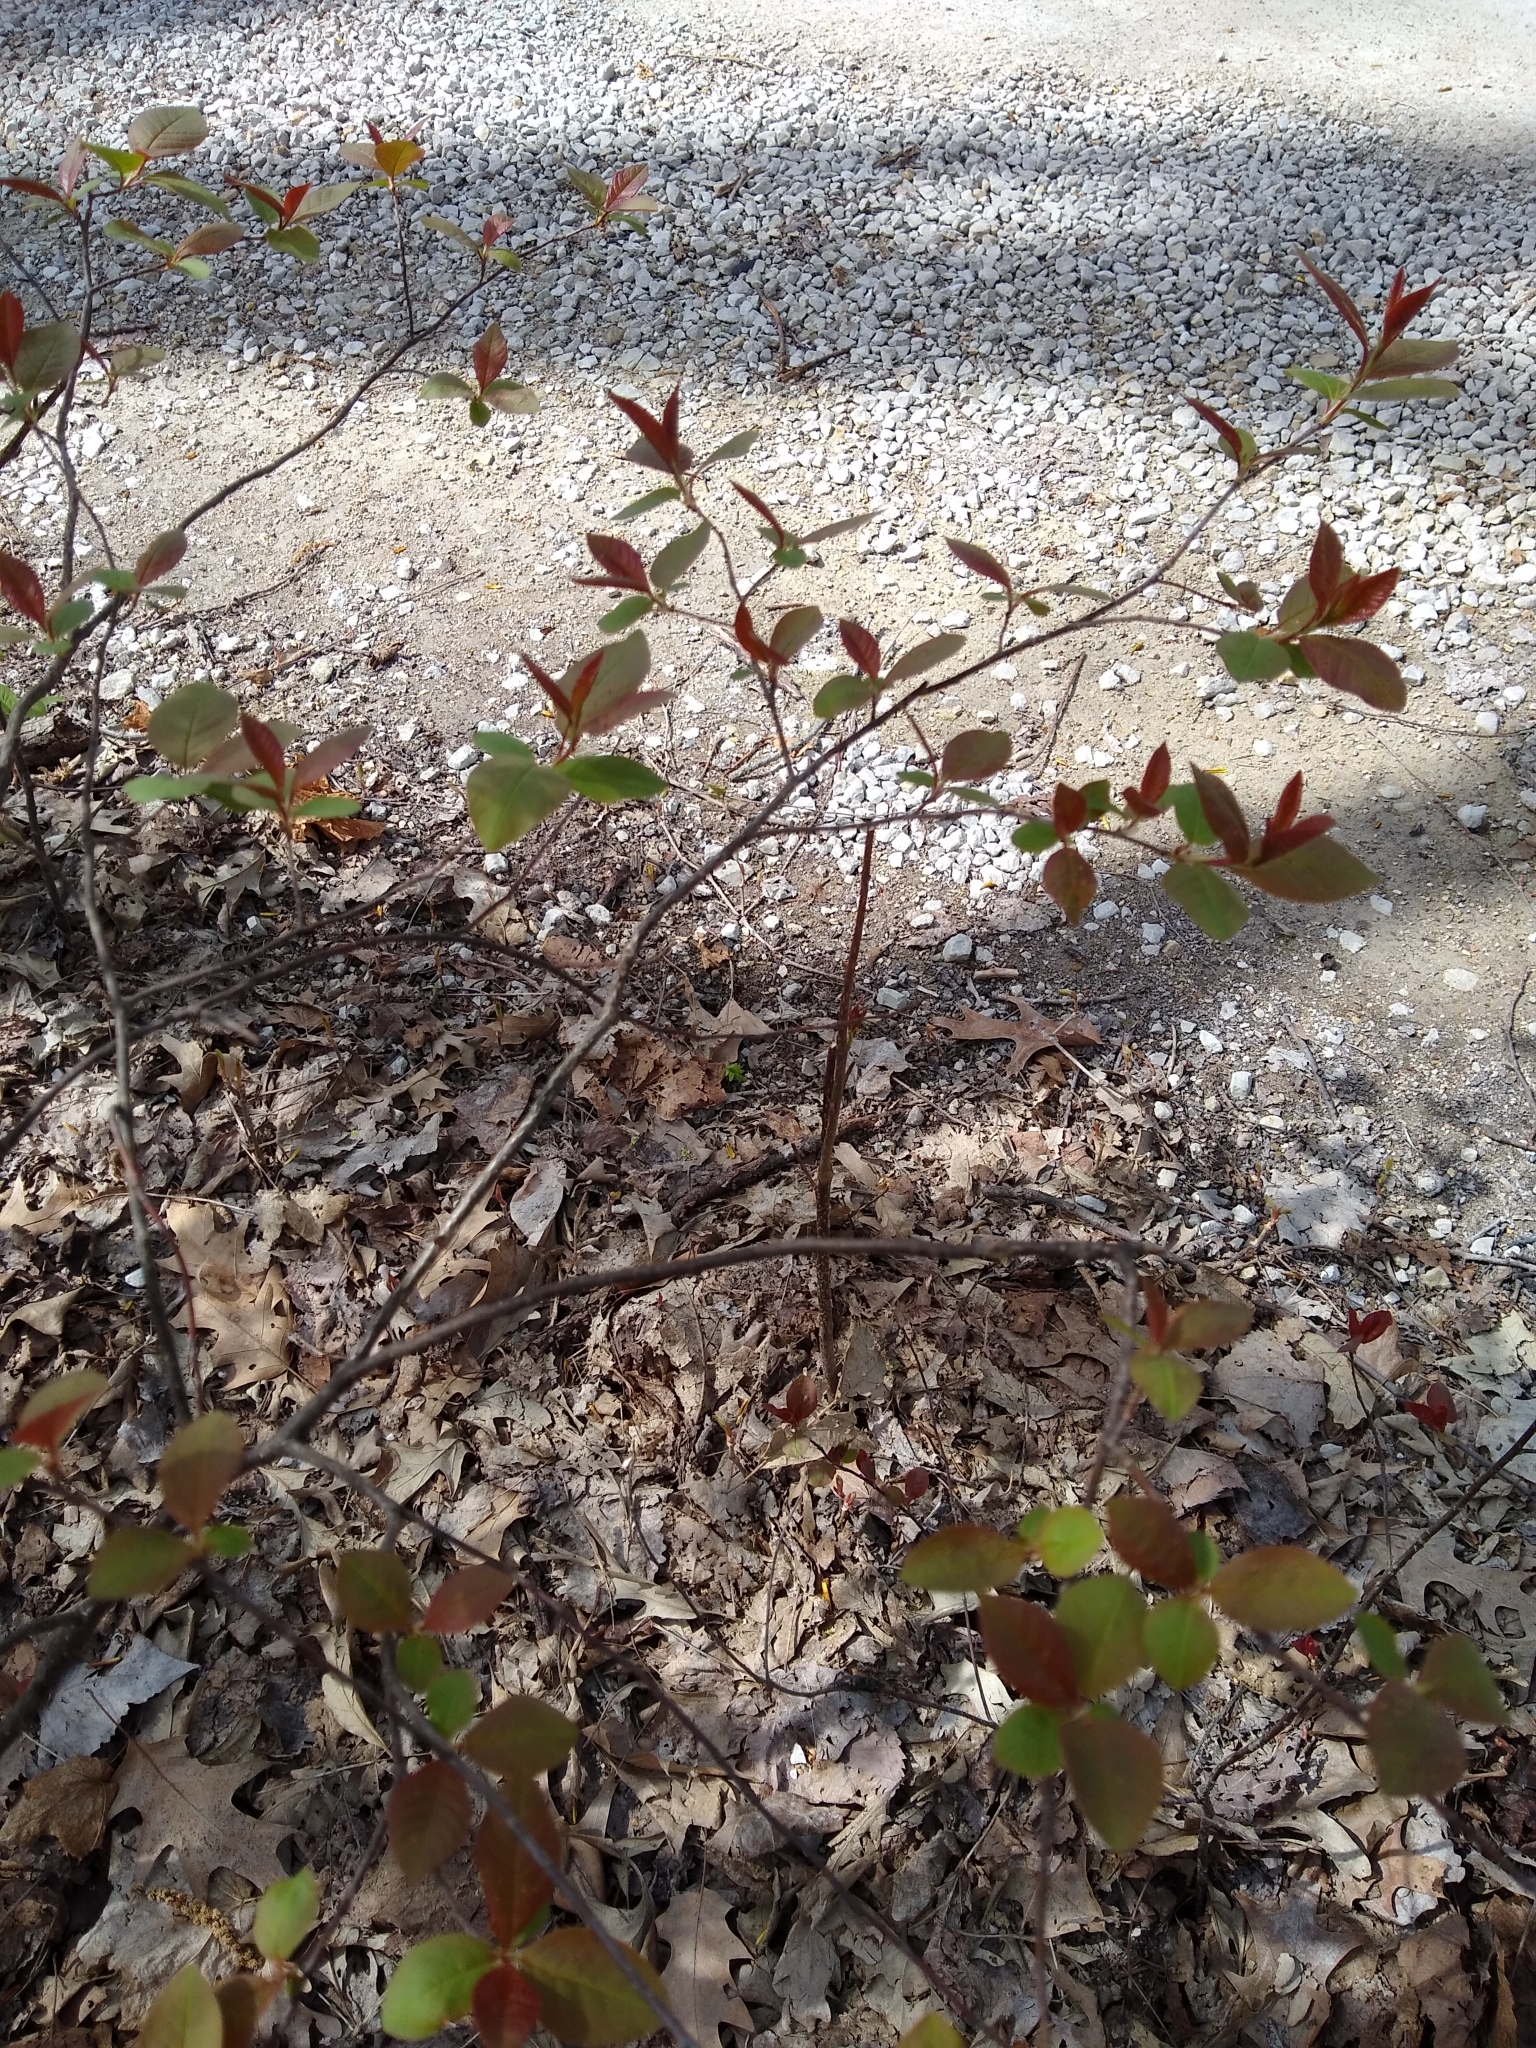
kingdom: Plantae
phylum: Tracheophyta
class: Magnoliopsida
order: Rosales
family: Rosaceae
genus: Prunus
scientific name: Prunus serotina
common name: Black cherry
